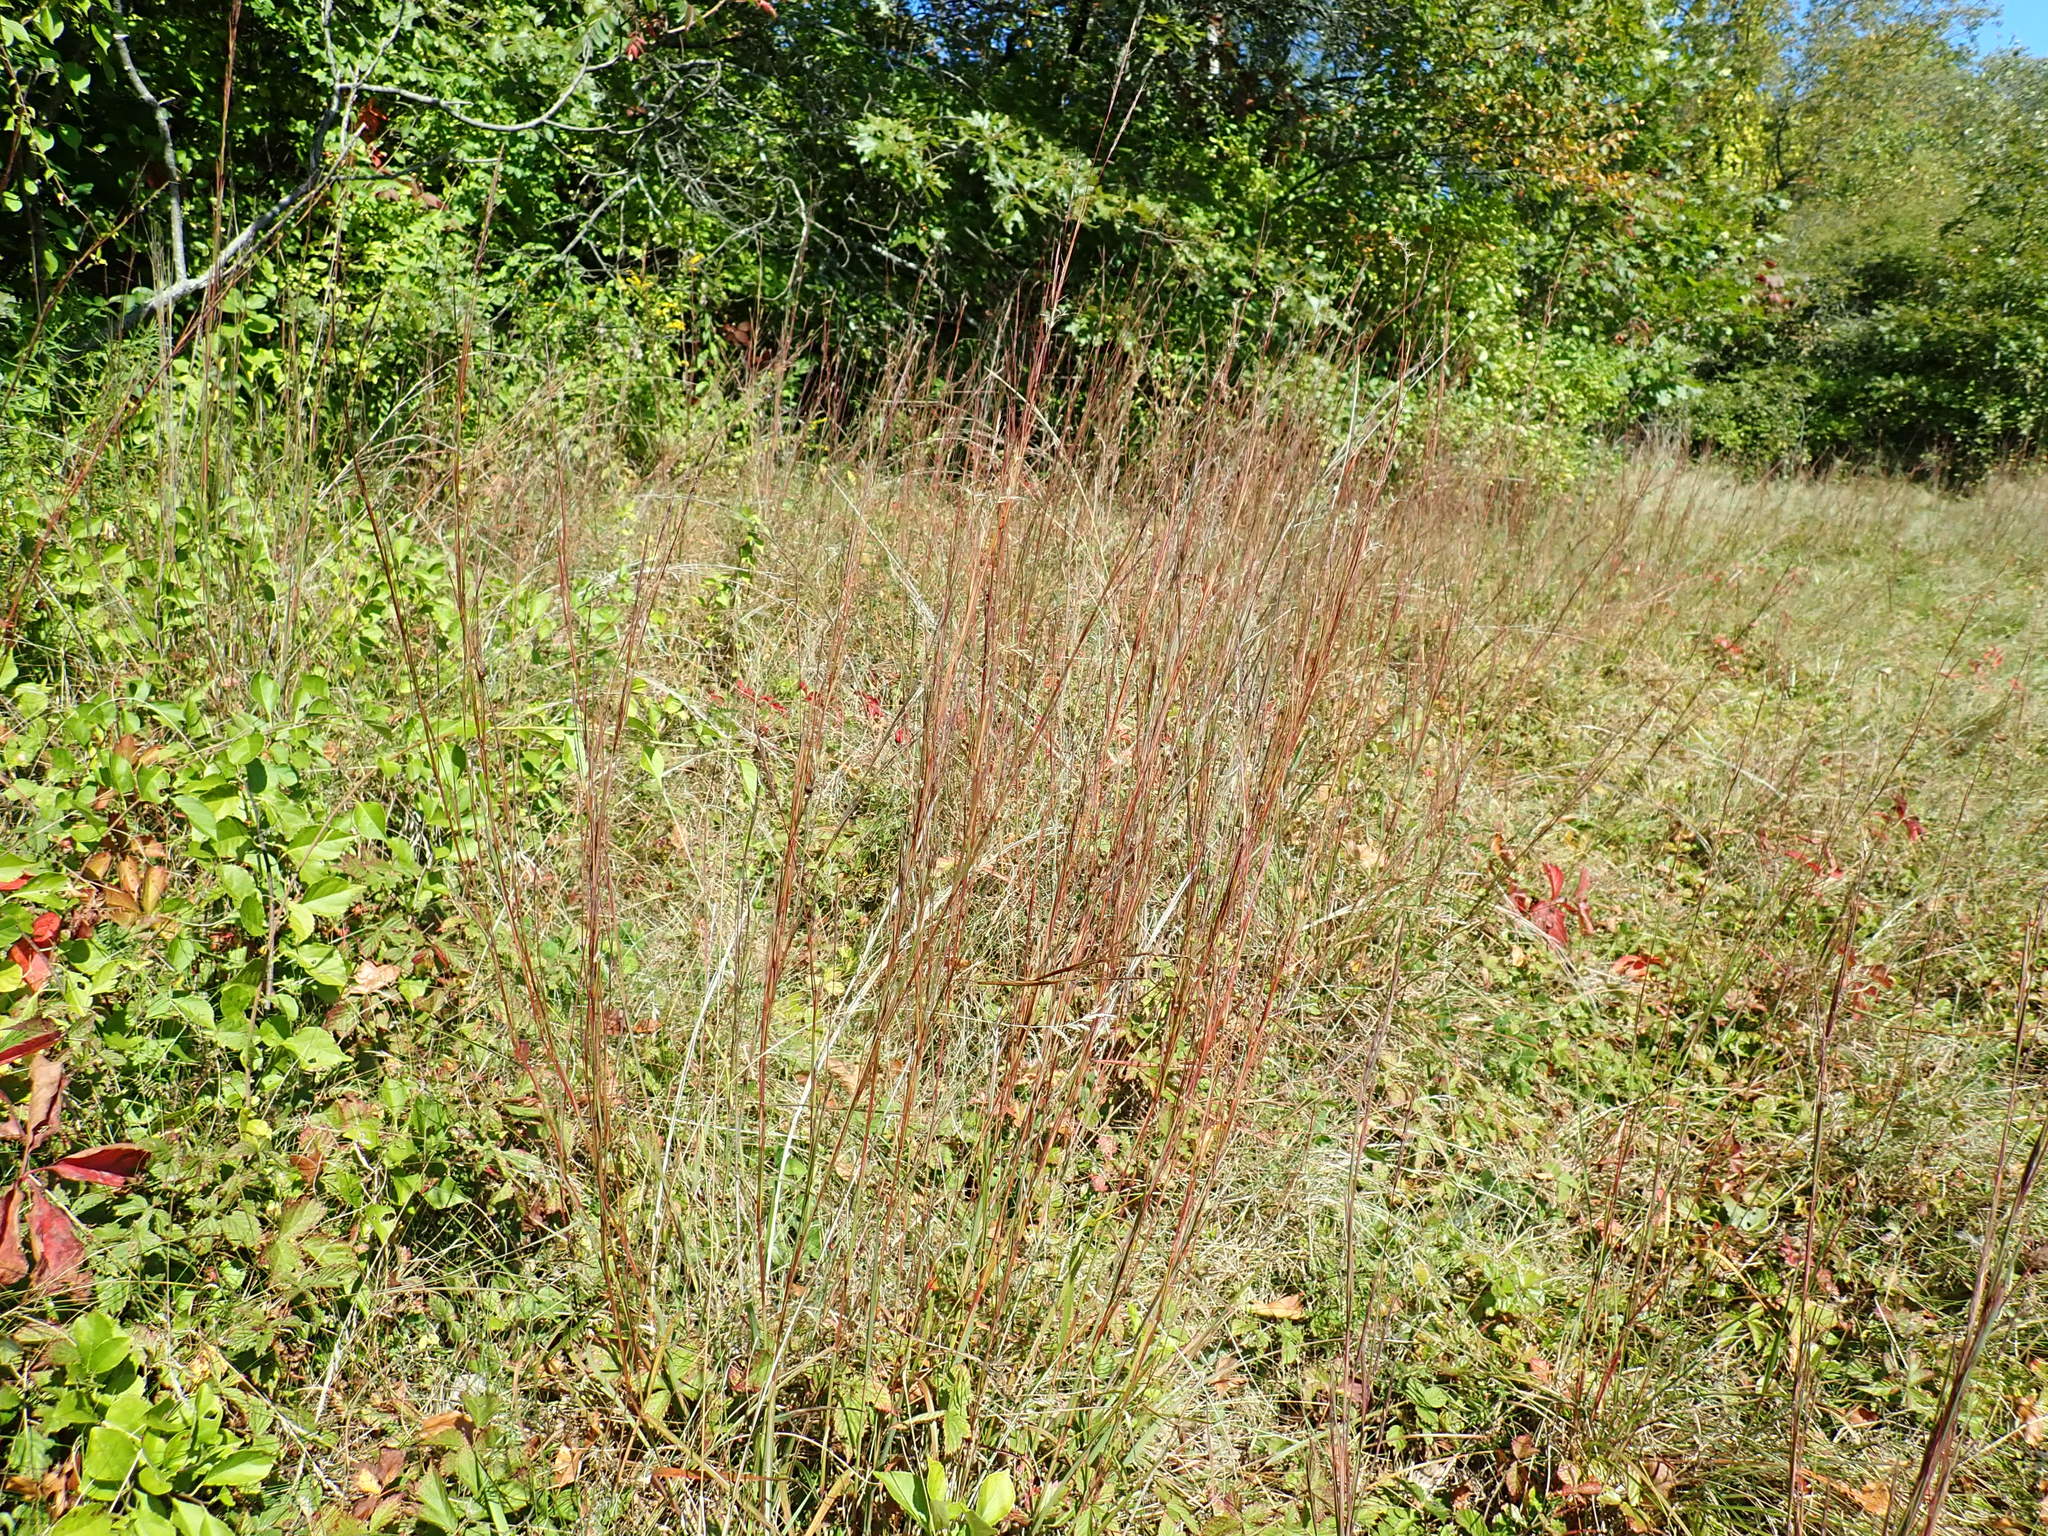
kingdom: Plantae
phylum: Tracheophyta
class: Liliopsida
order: Poales
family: Poaceae
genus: Schizachyrium
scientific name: Schizachyrium scoparium
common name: Little bluestem
